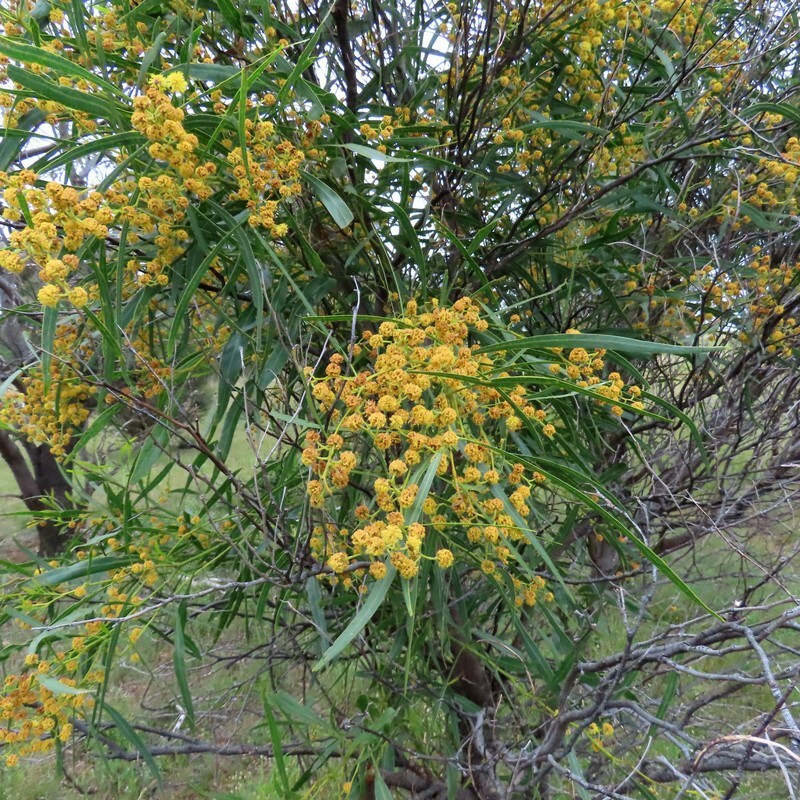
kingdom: Plantae
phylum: Tracheophyta
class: Magnoliopsida
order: Fabales
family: Fabaceae
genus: Acacia
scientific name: Acacia saligna
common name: Orange wattle
